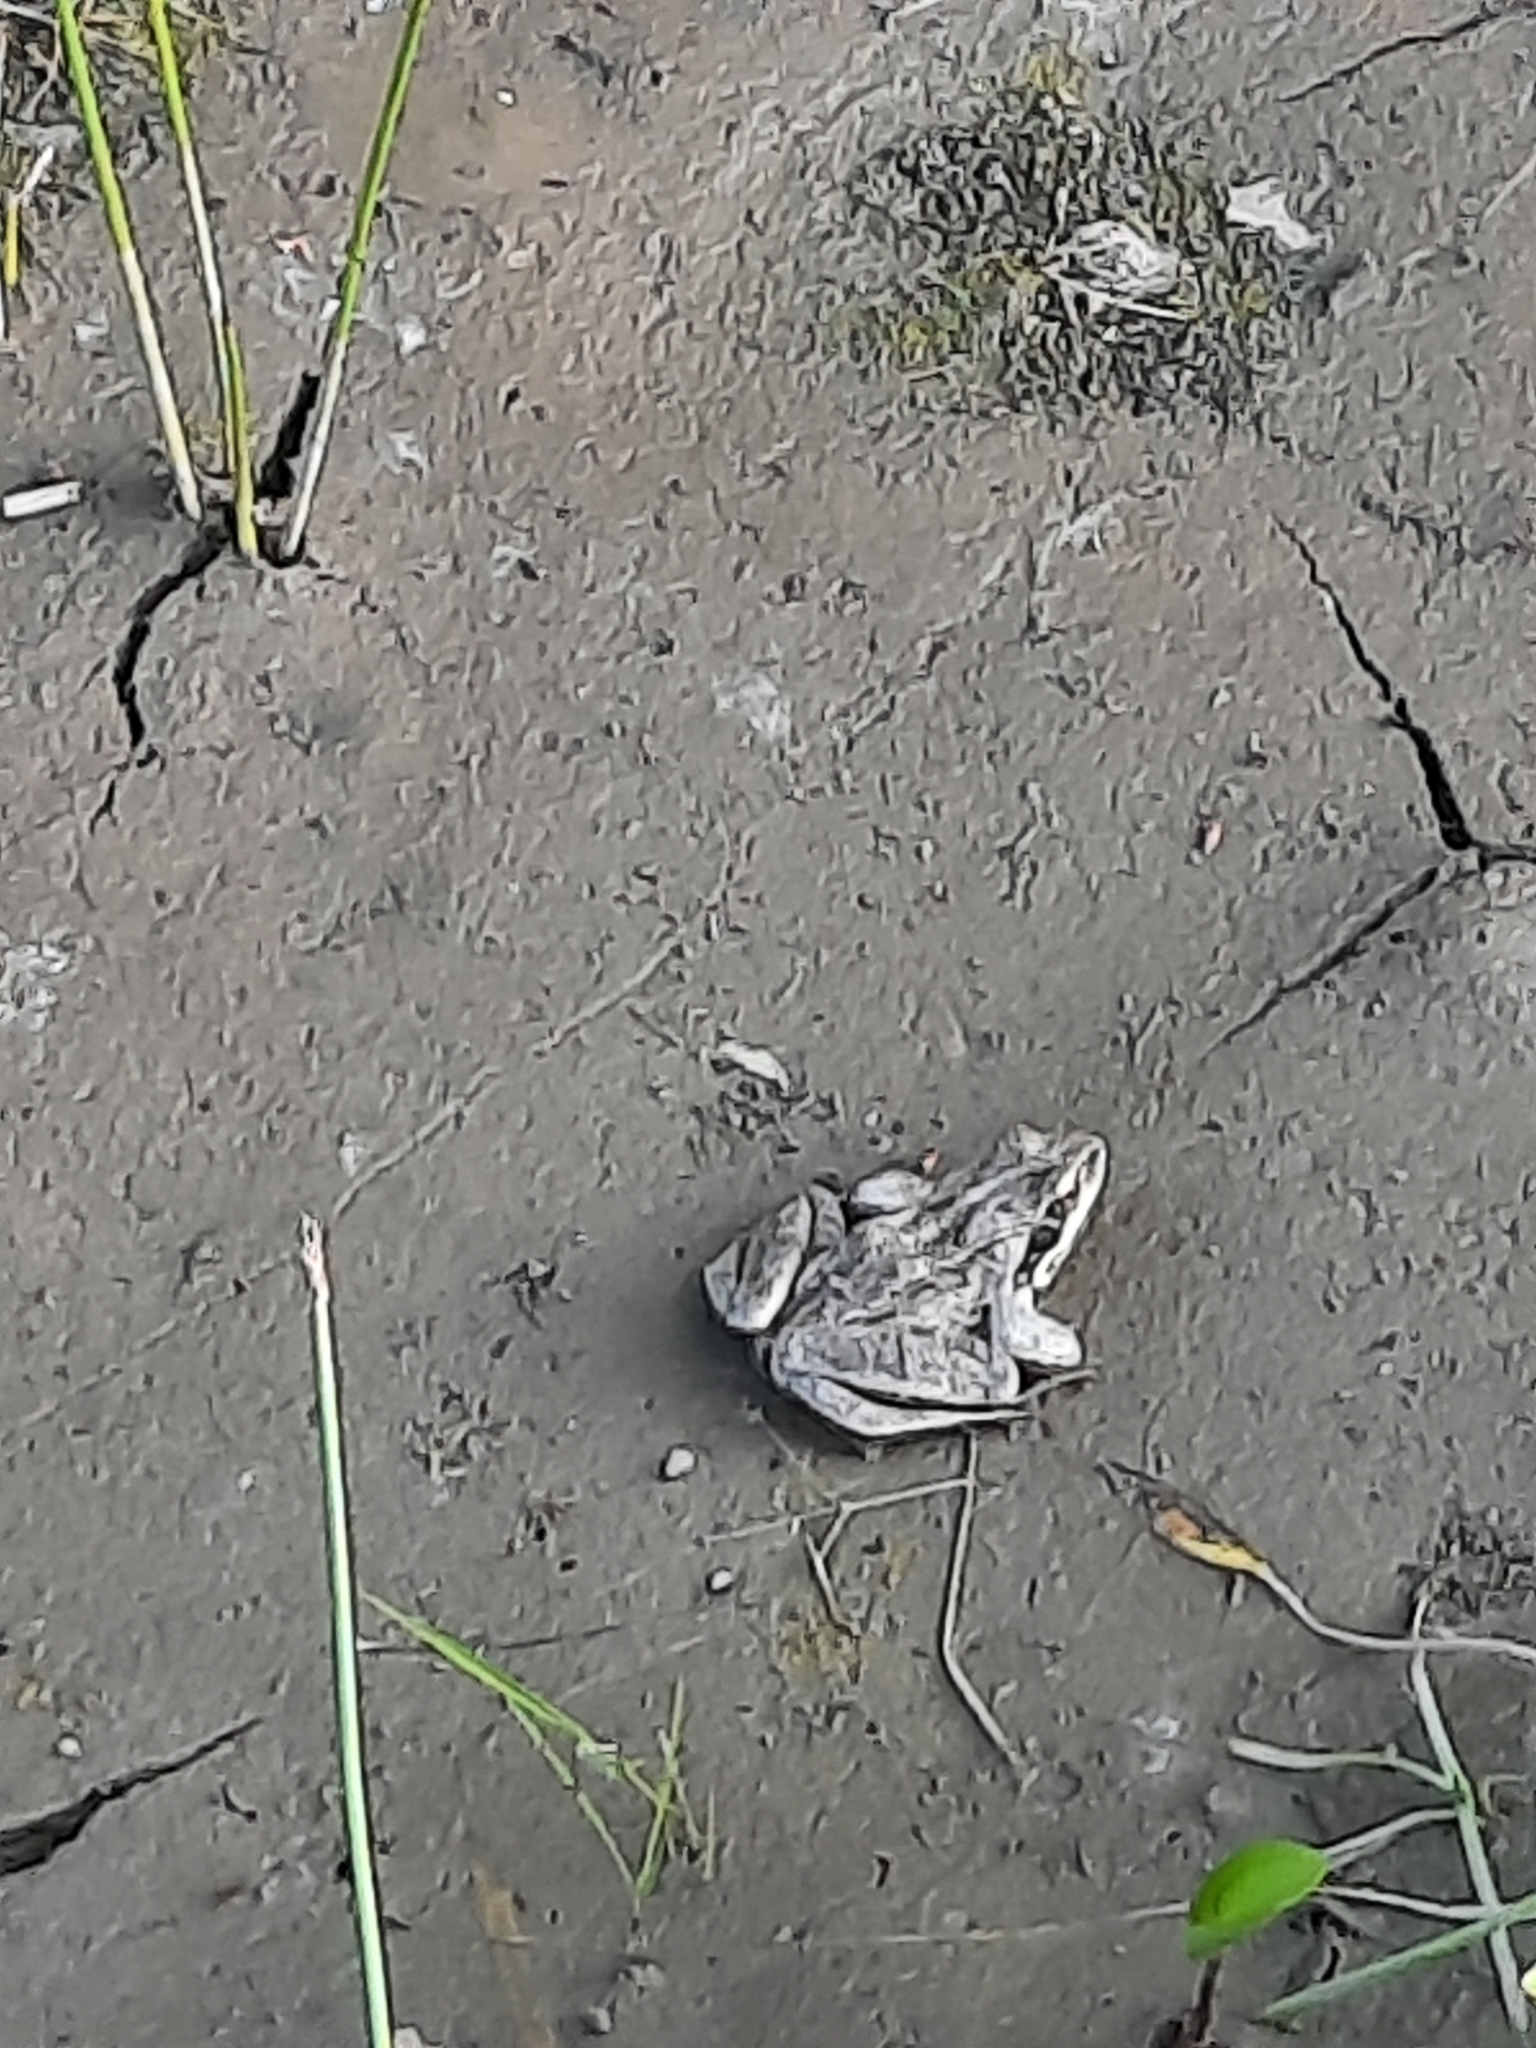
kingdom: Animalia
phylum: Chordata
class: Amphibia
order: Anura
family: Ranidae
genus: Rana
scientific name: Rana arvalis
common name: Moor frog
